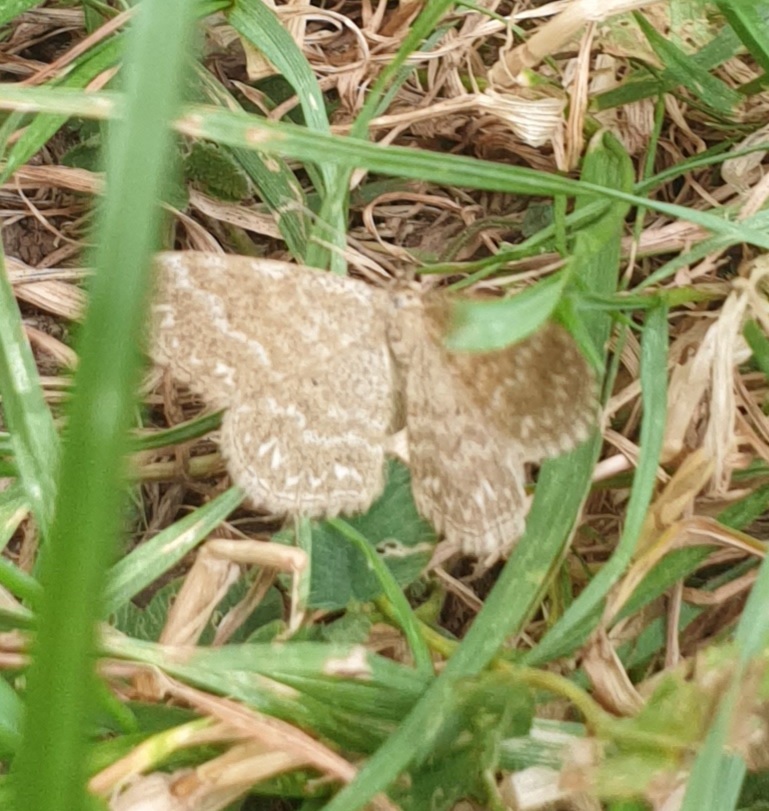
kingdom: Animalia
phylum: Arthropoda
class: Insecta
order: Lepidoptera
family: Geometridae
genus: Scopula
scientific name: Scopula immorata
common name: Lewes wave
